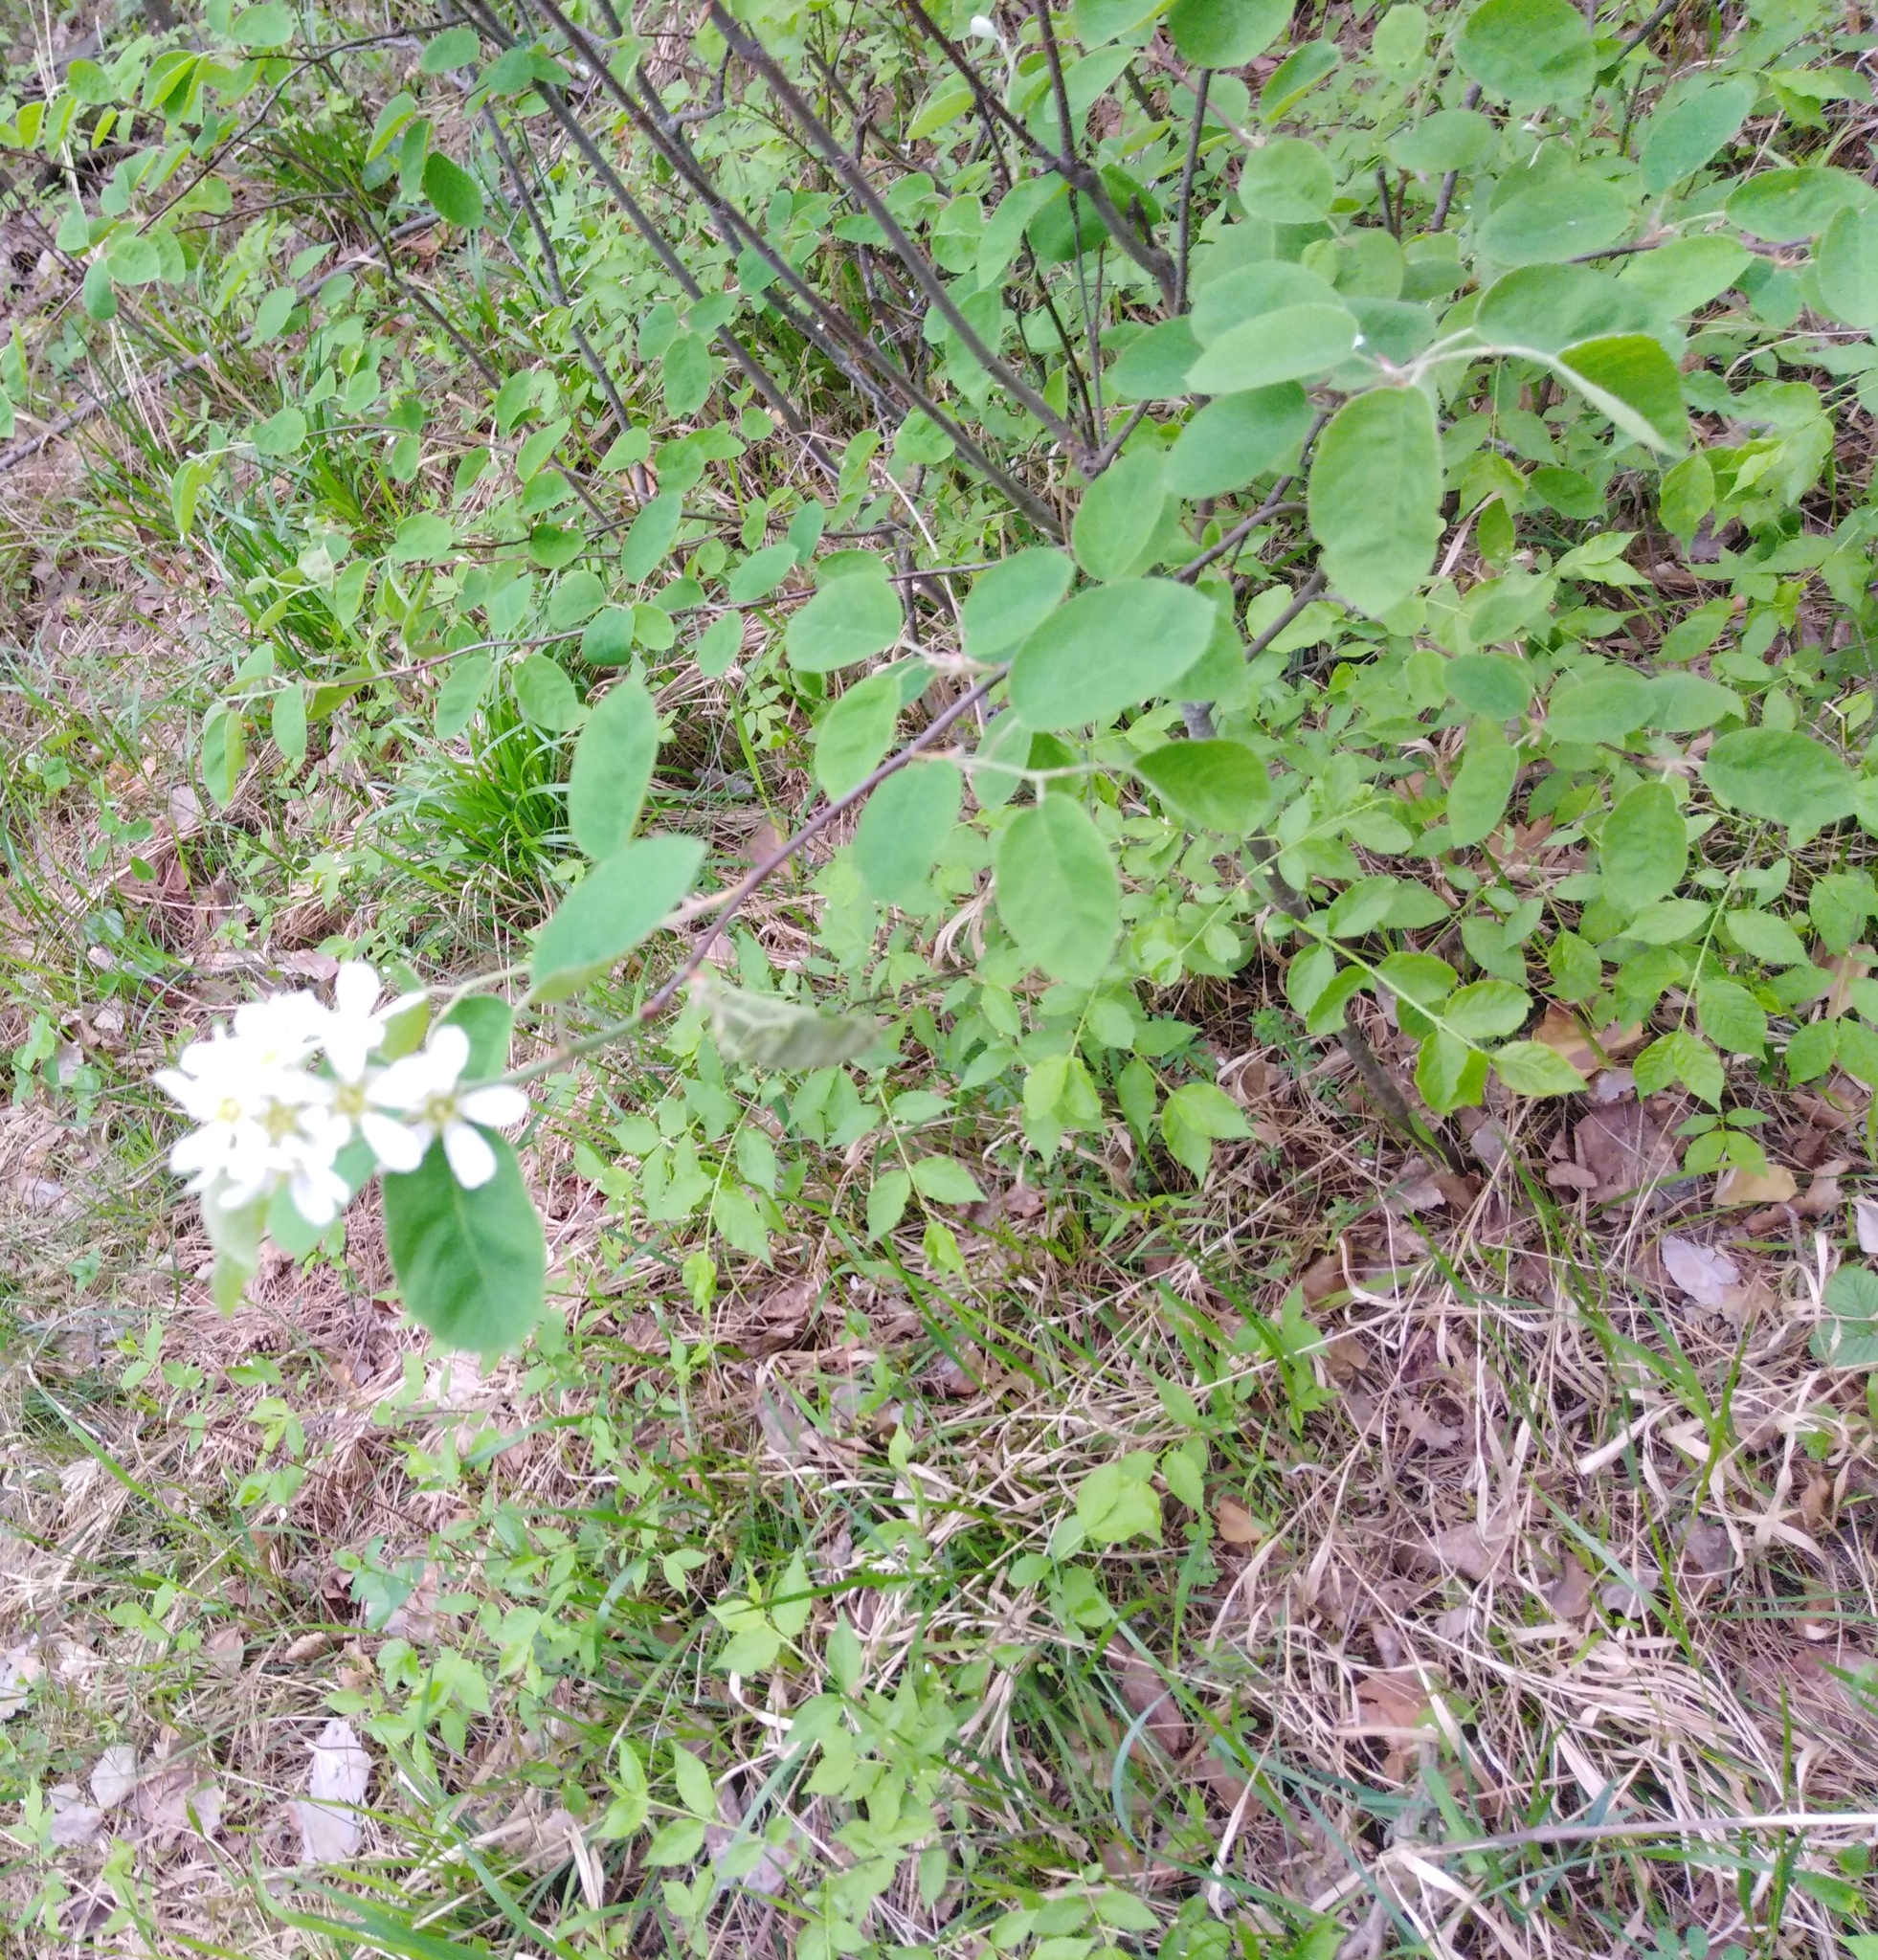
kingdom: Plantae
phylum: Tracheophyta
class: Magnoliopsida
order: Rosales
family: Rosaceae
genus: Amelanchier
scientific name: Amelanchier
